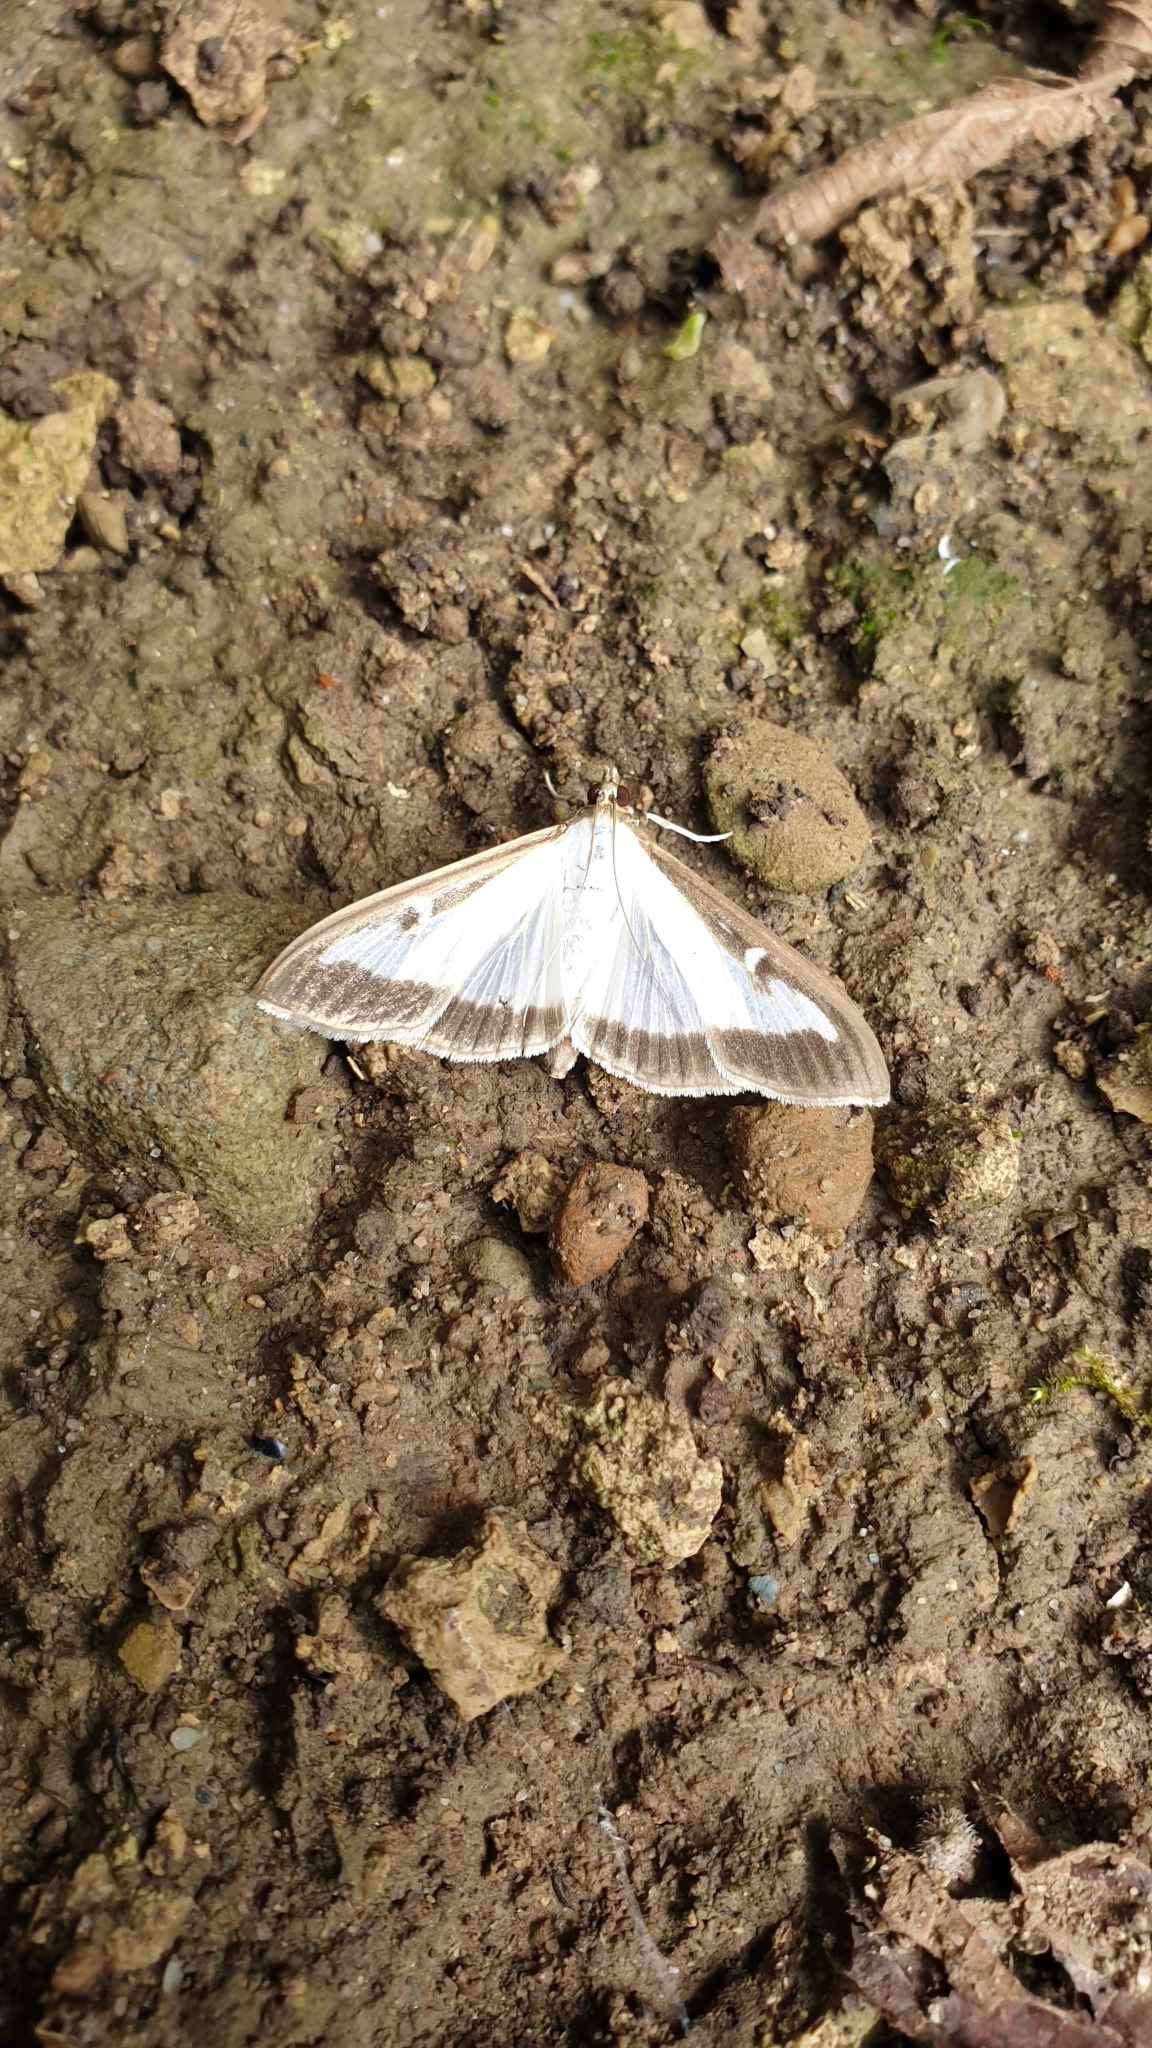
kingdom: Animalia
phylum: Arthropoda
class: Insecta
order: Lepidoptera
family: Crambidae
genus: Cydalima
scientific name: Cydalima perspectalis
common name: Box tree moth
